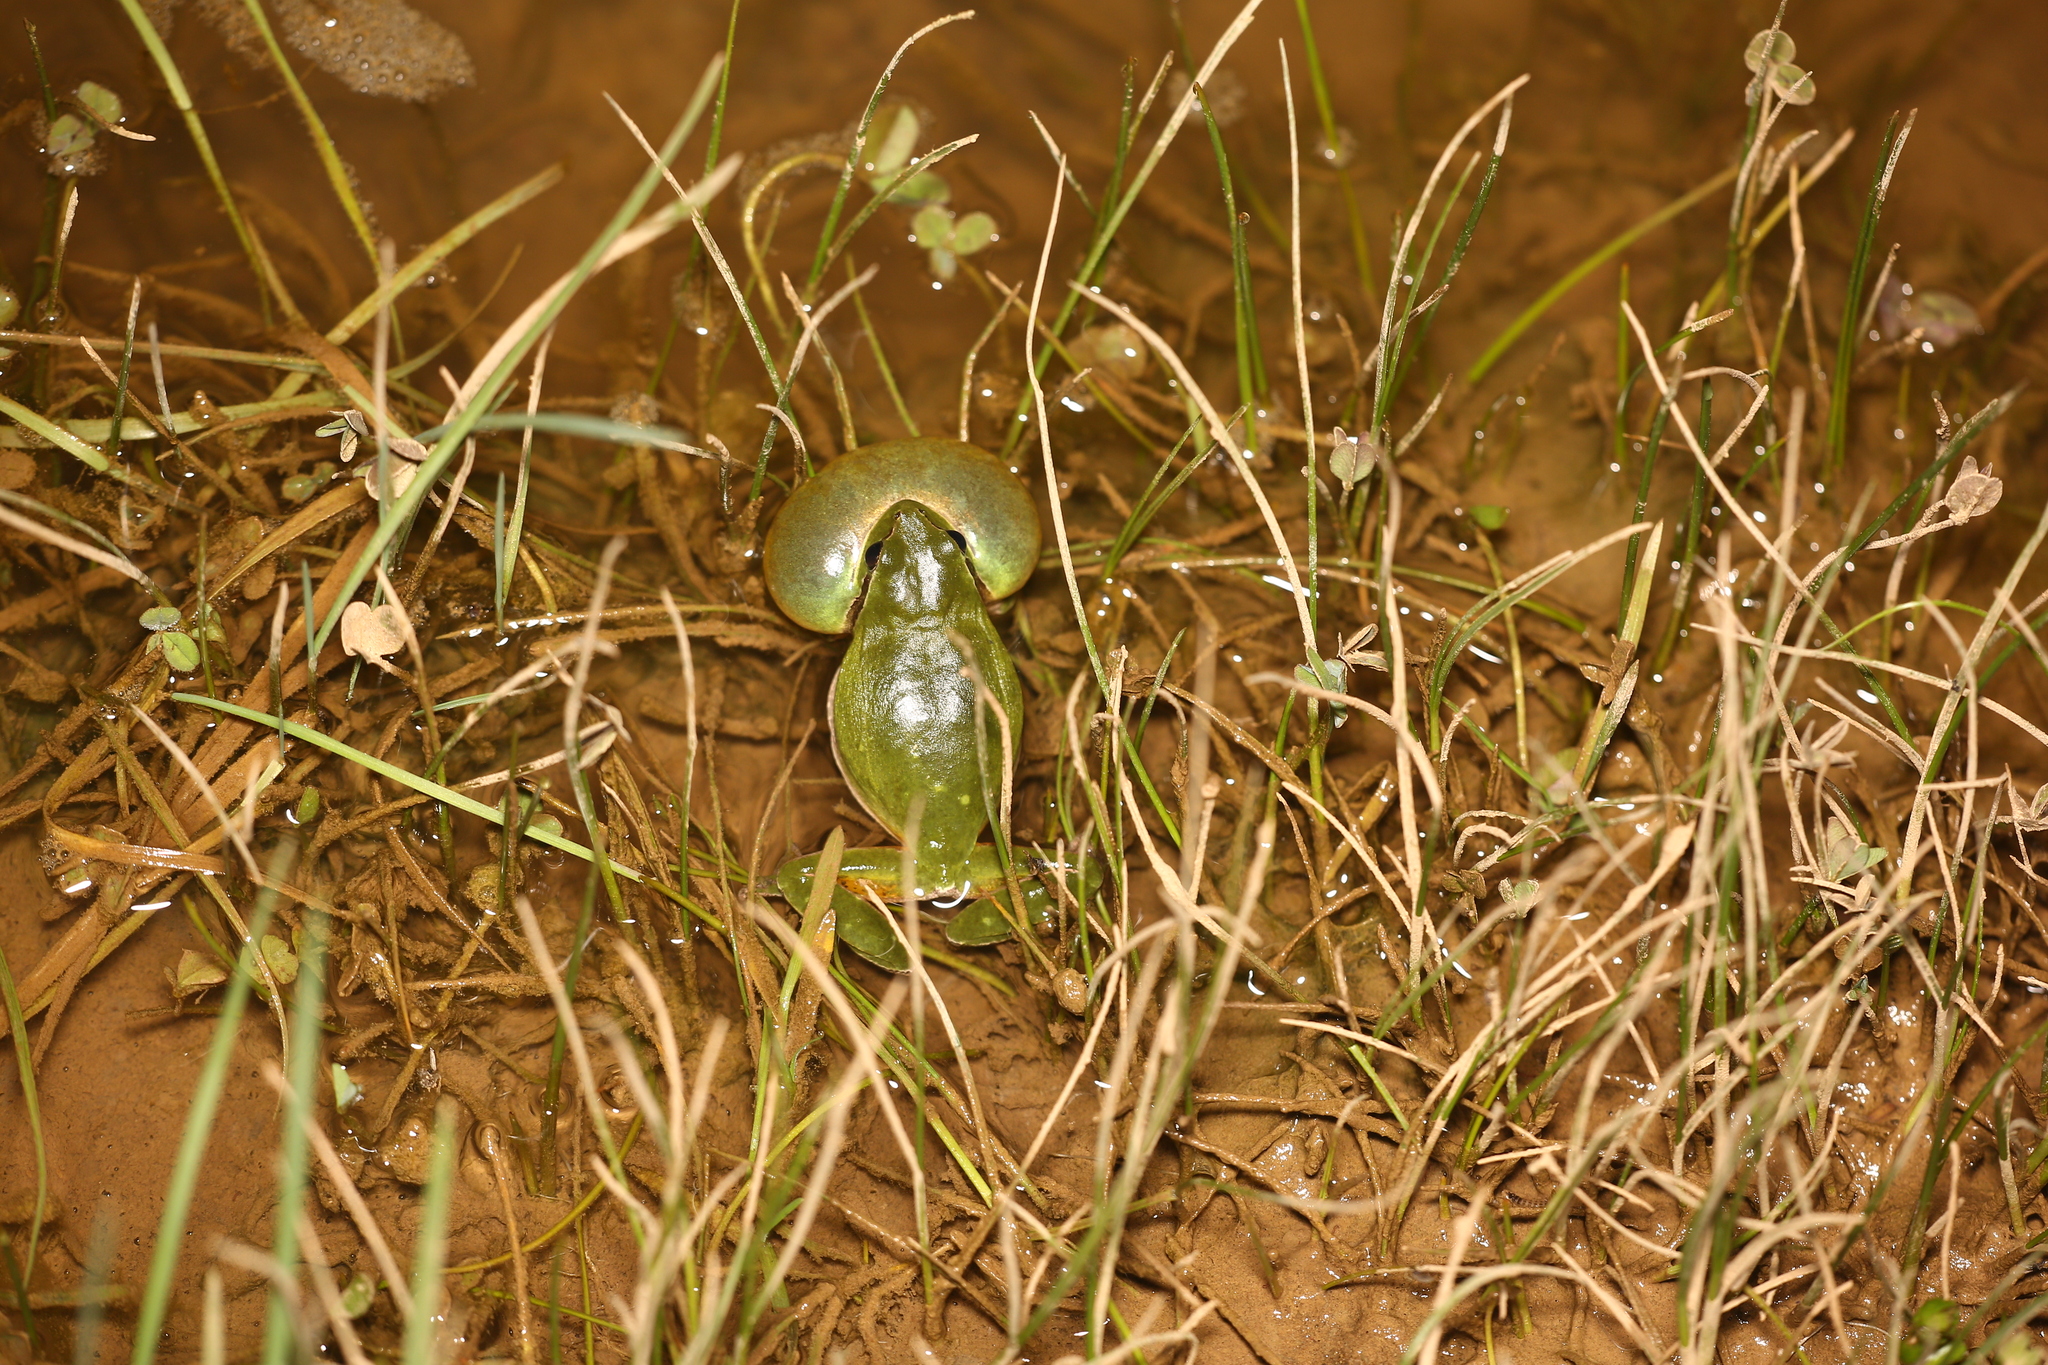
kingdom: Animalia
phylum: Chordata
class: Amphibia
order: Anura
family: Hylidae
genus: Hyla
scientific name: Hyla meridionalis
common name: Stripeless tree frog
